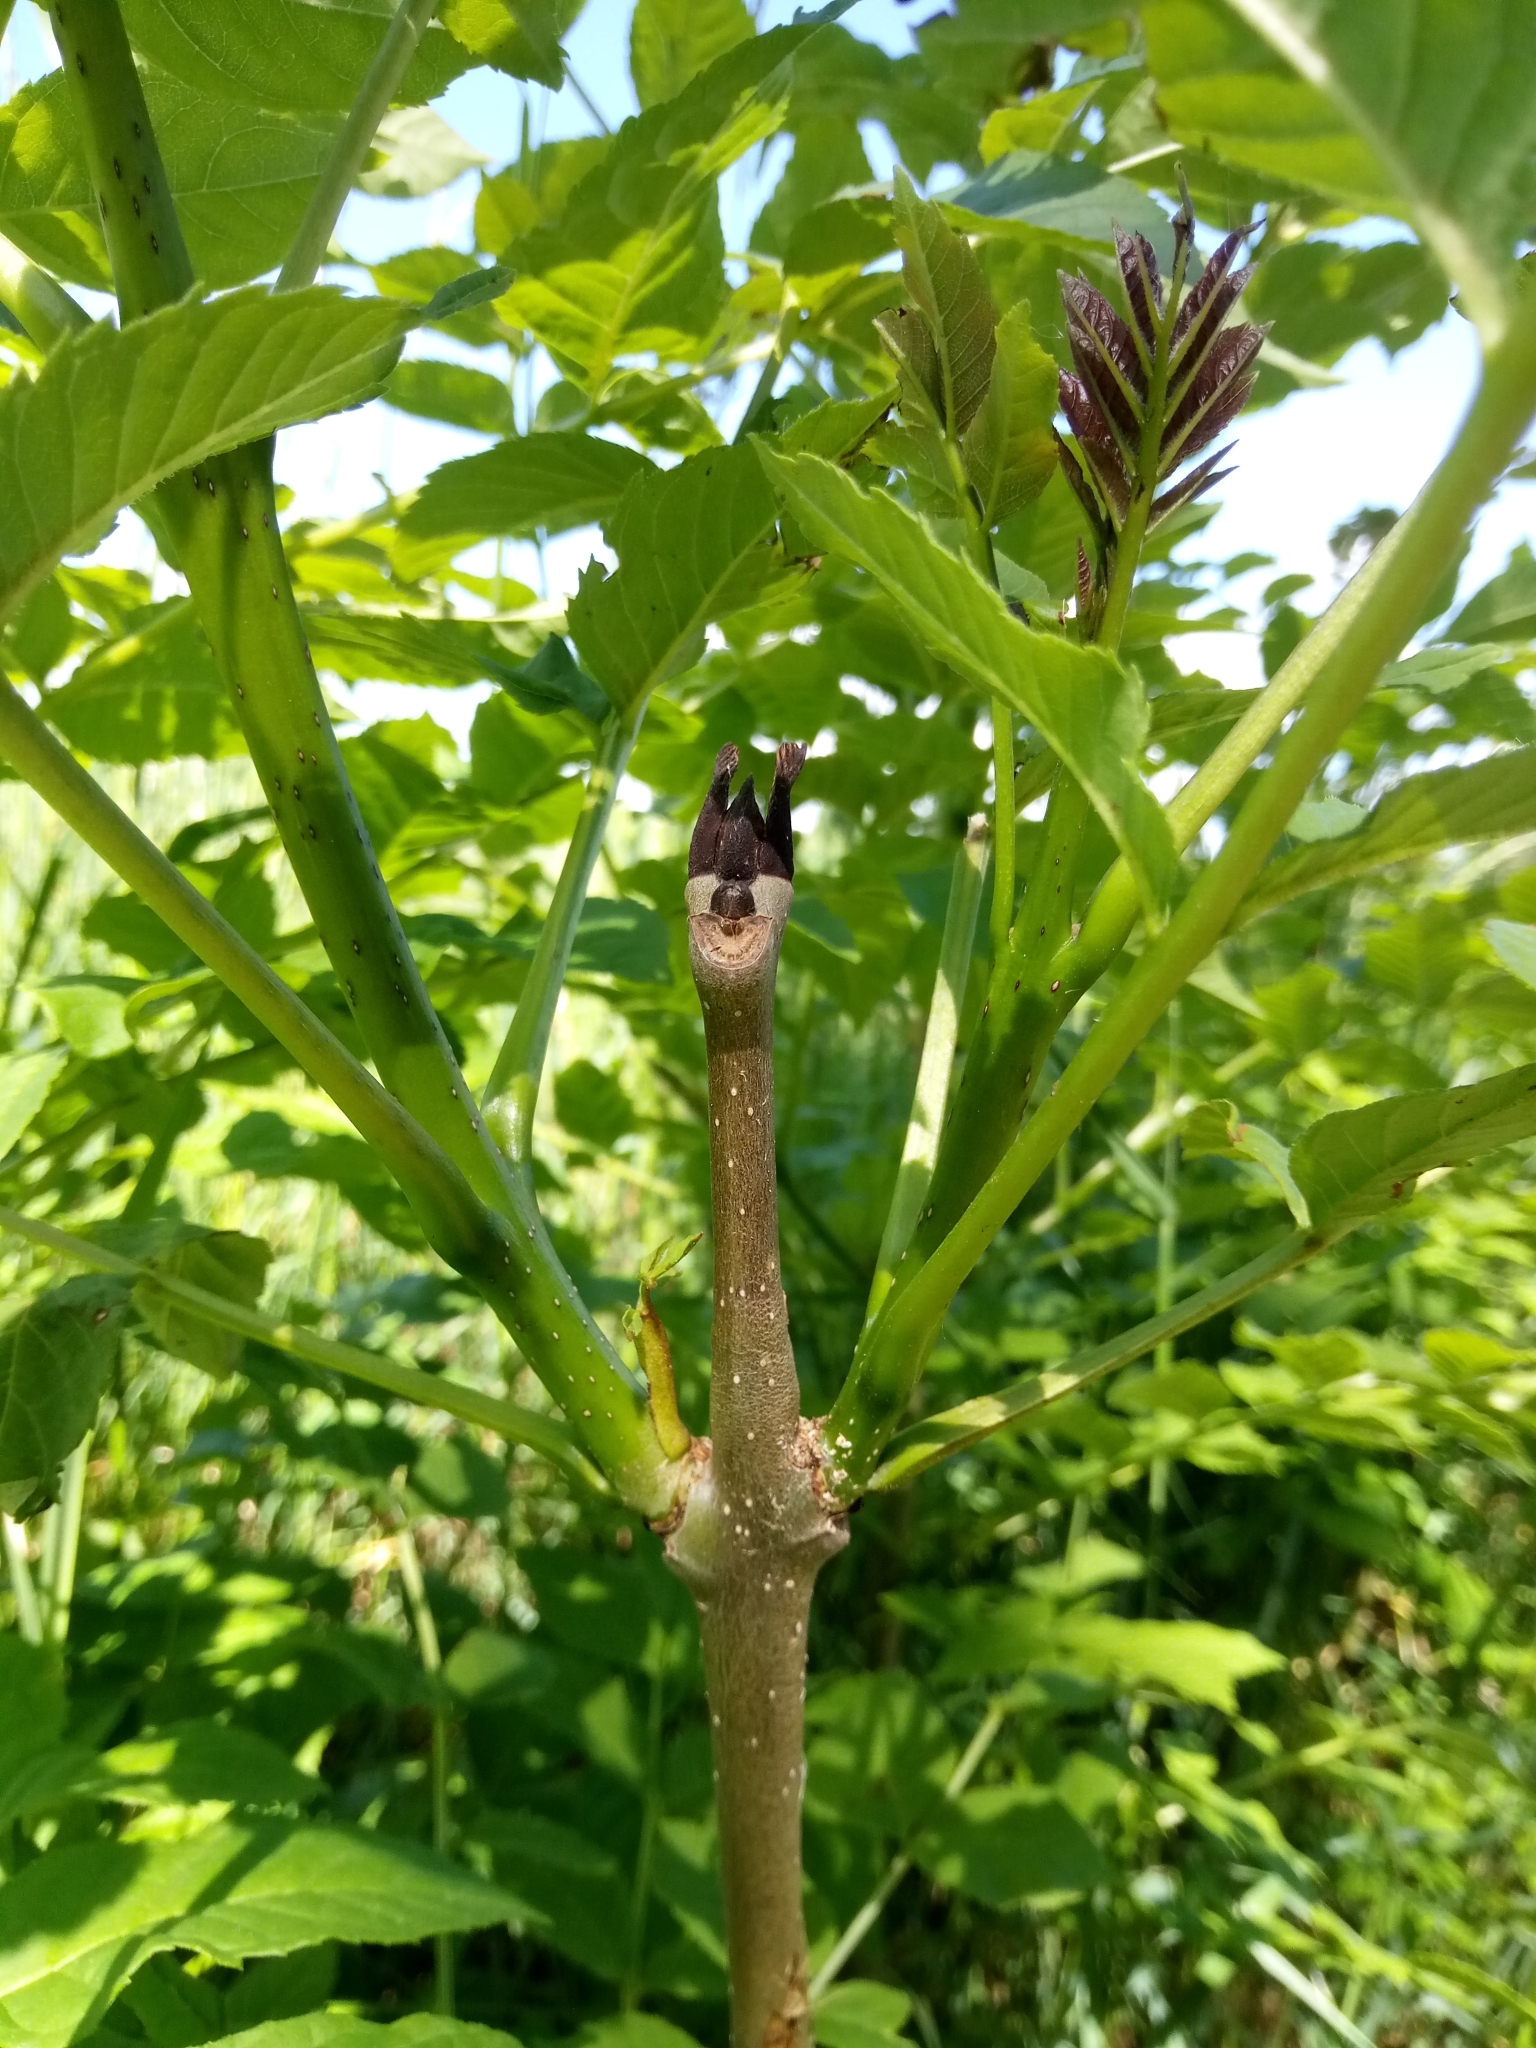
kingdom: Plantae
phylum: Tracheophyta
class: Magnoliopsida
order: Lamiales
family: Oleaceae
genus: Fraxinus
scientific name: Fraxinus excelsior
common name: European ash
